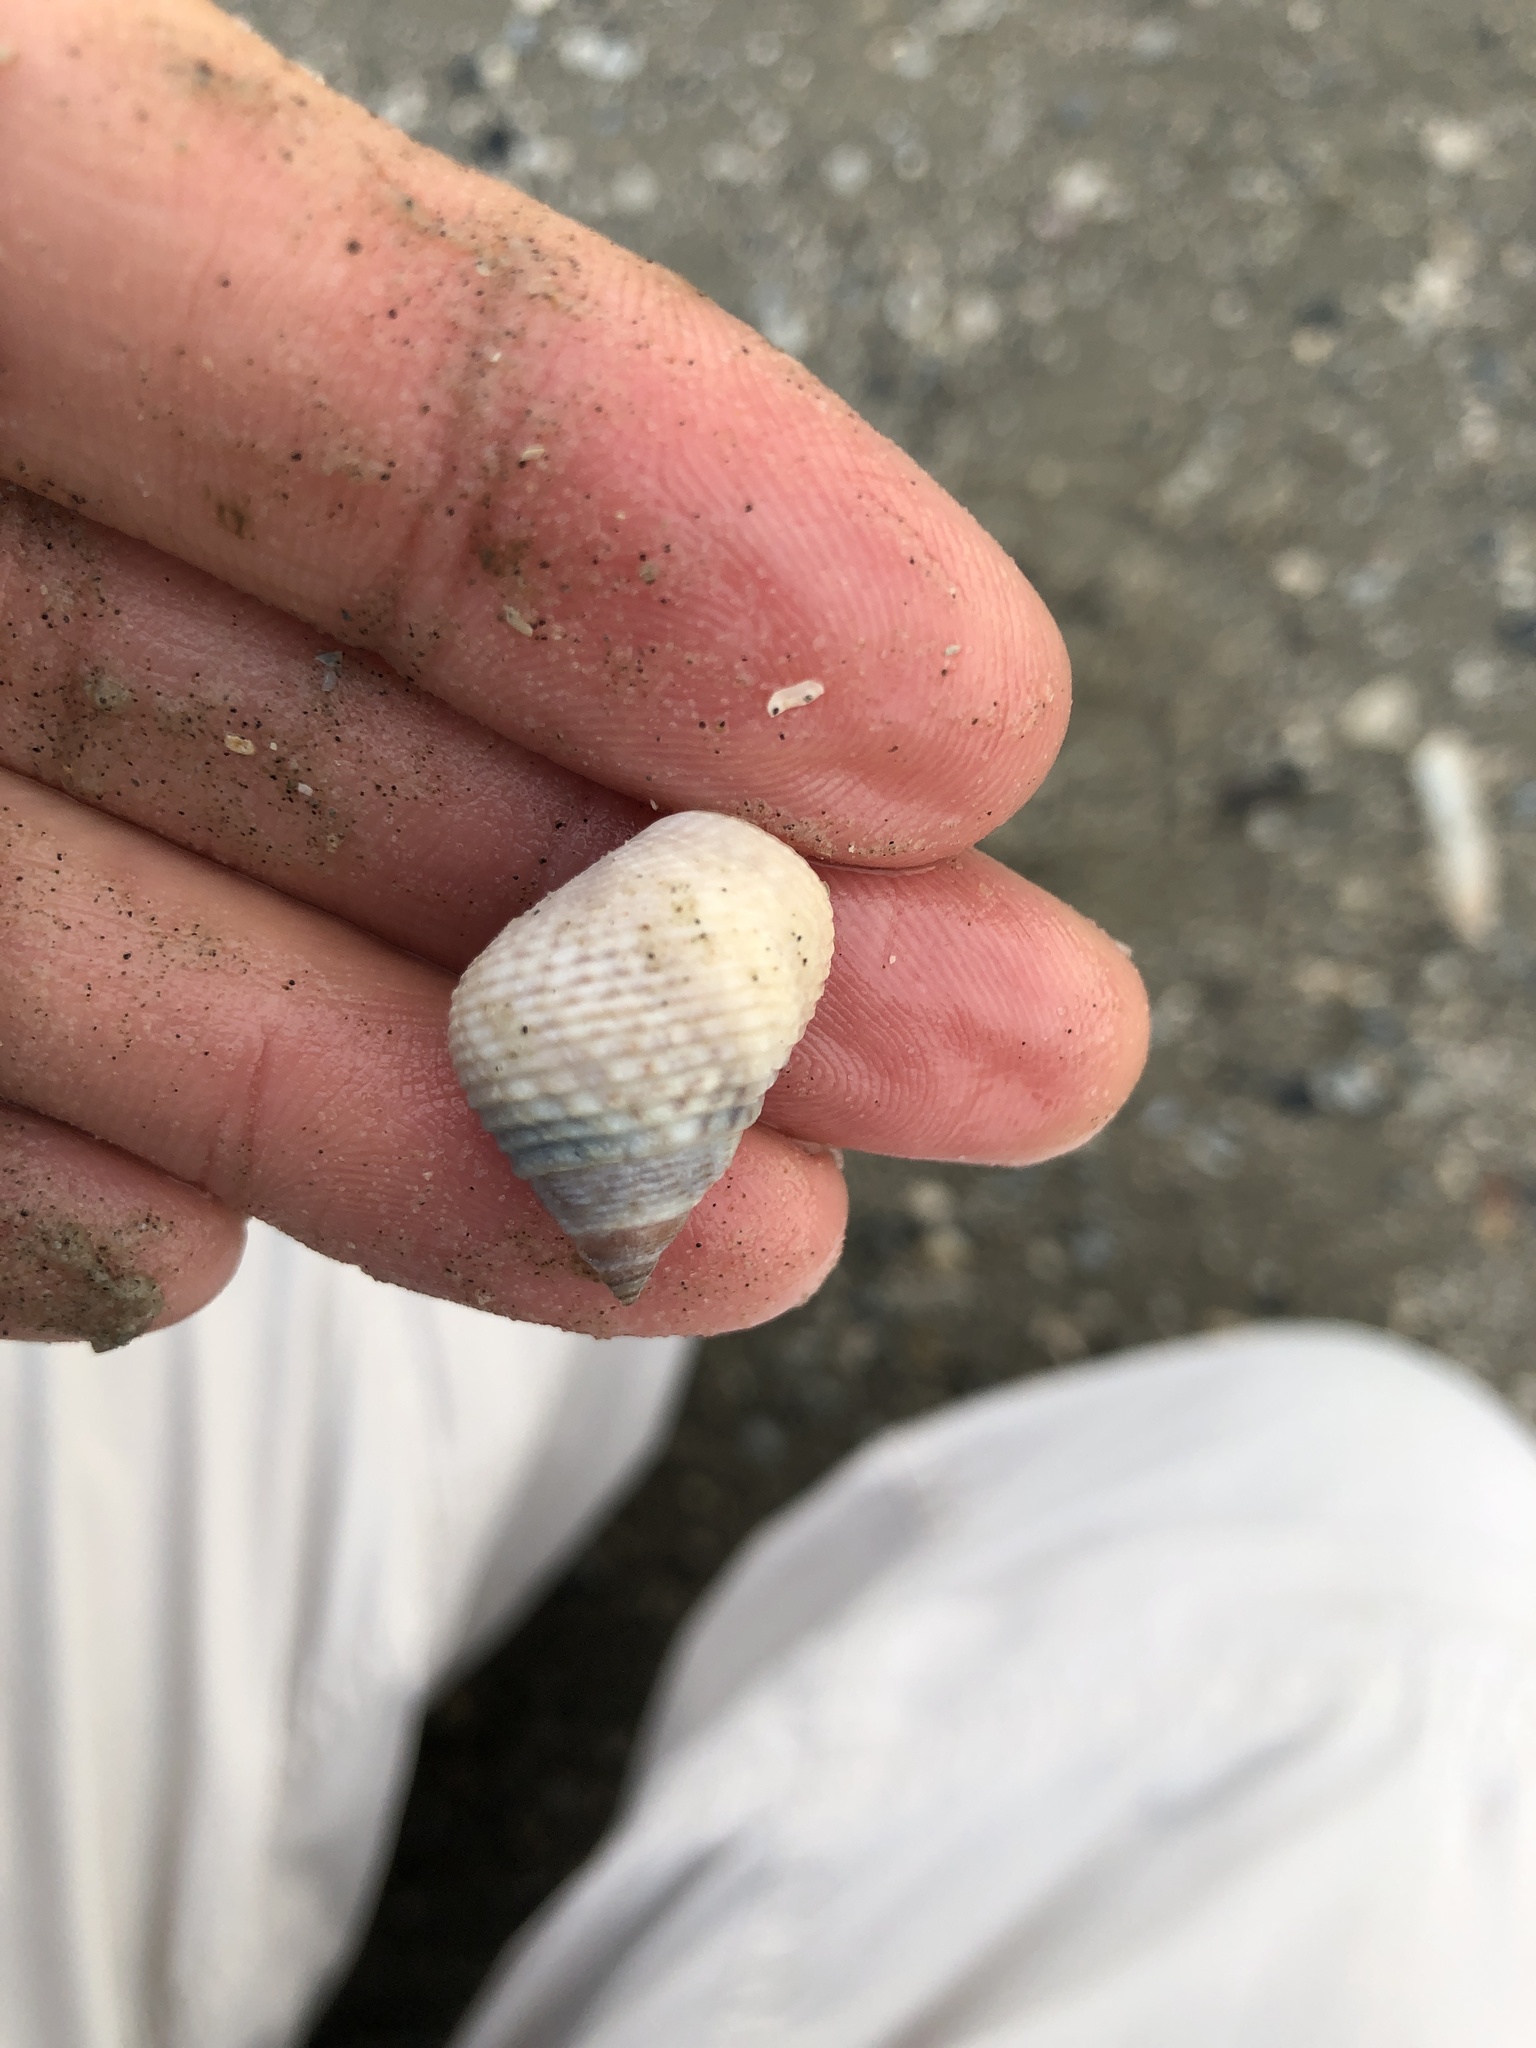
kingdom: Animalia
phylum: Mollusca
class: Gastropoda
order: Littorinimorpha
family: Littorinidae
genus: Littoraria
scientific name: Littoraria irrorata
